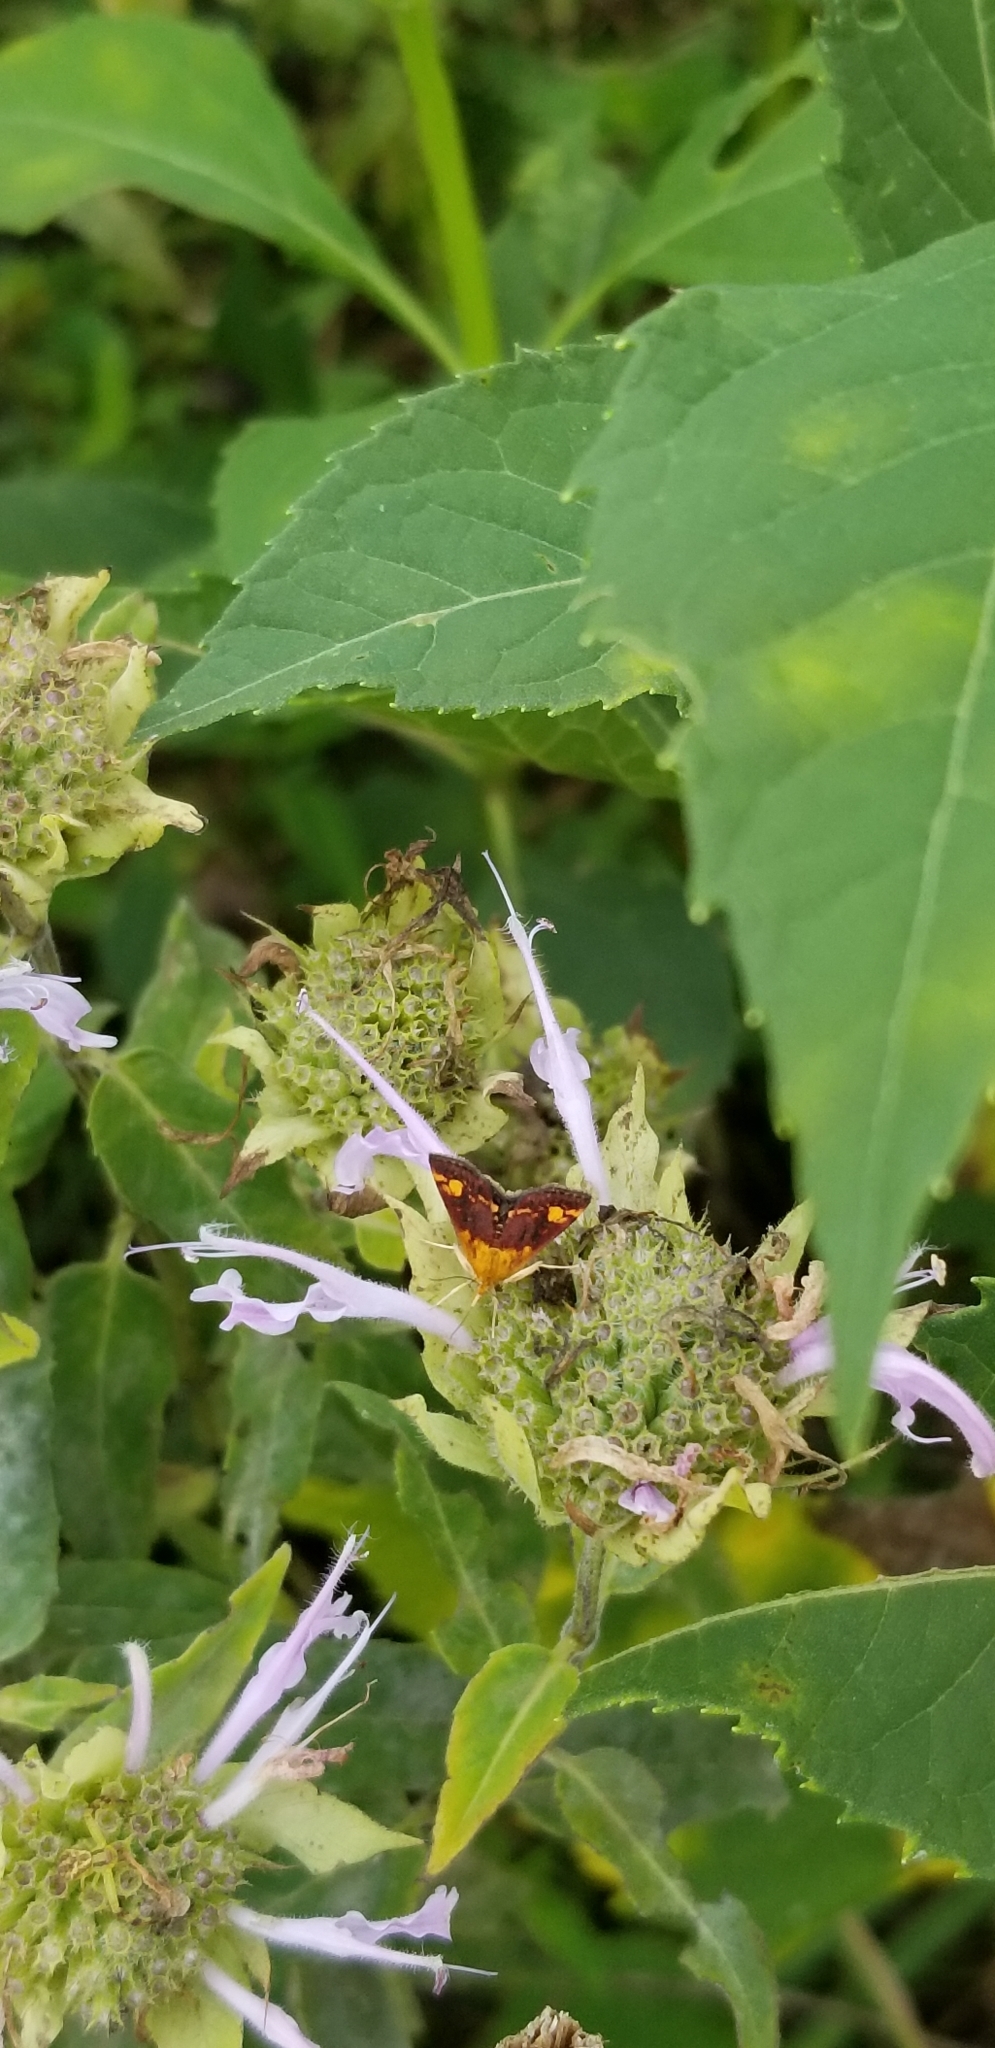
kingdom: Animalia
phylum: Arthropoda
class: Insecta
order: Lepidoptera
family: Crambidae
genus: Pyrausta
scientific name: Pyrausta orphisalis
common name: Orange mint moth
